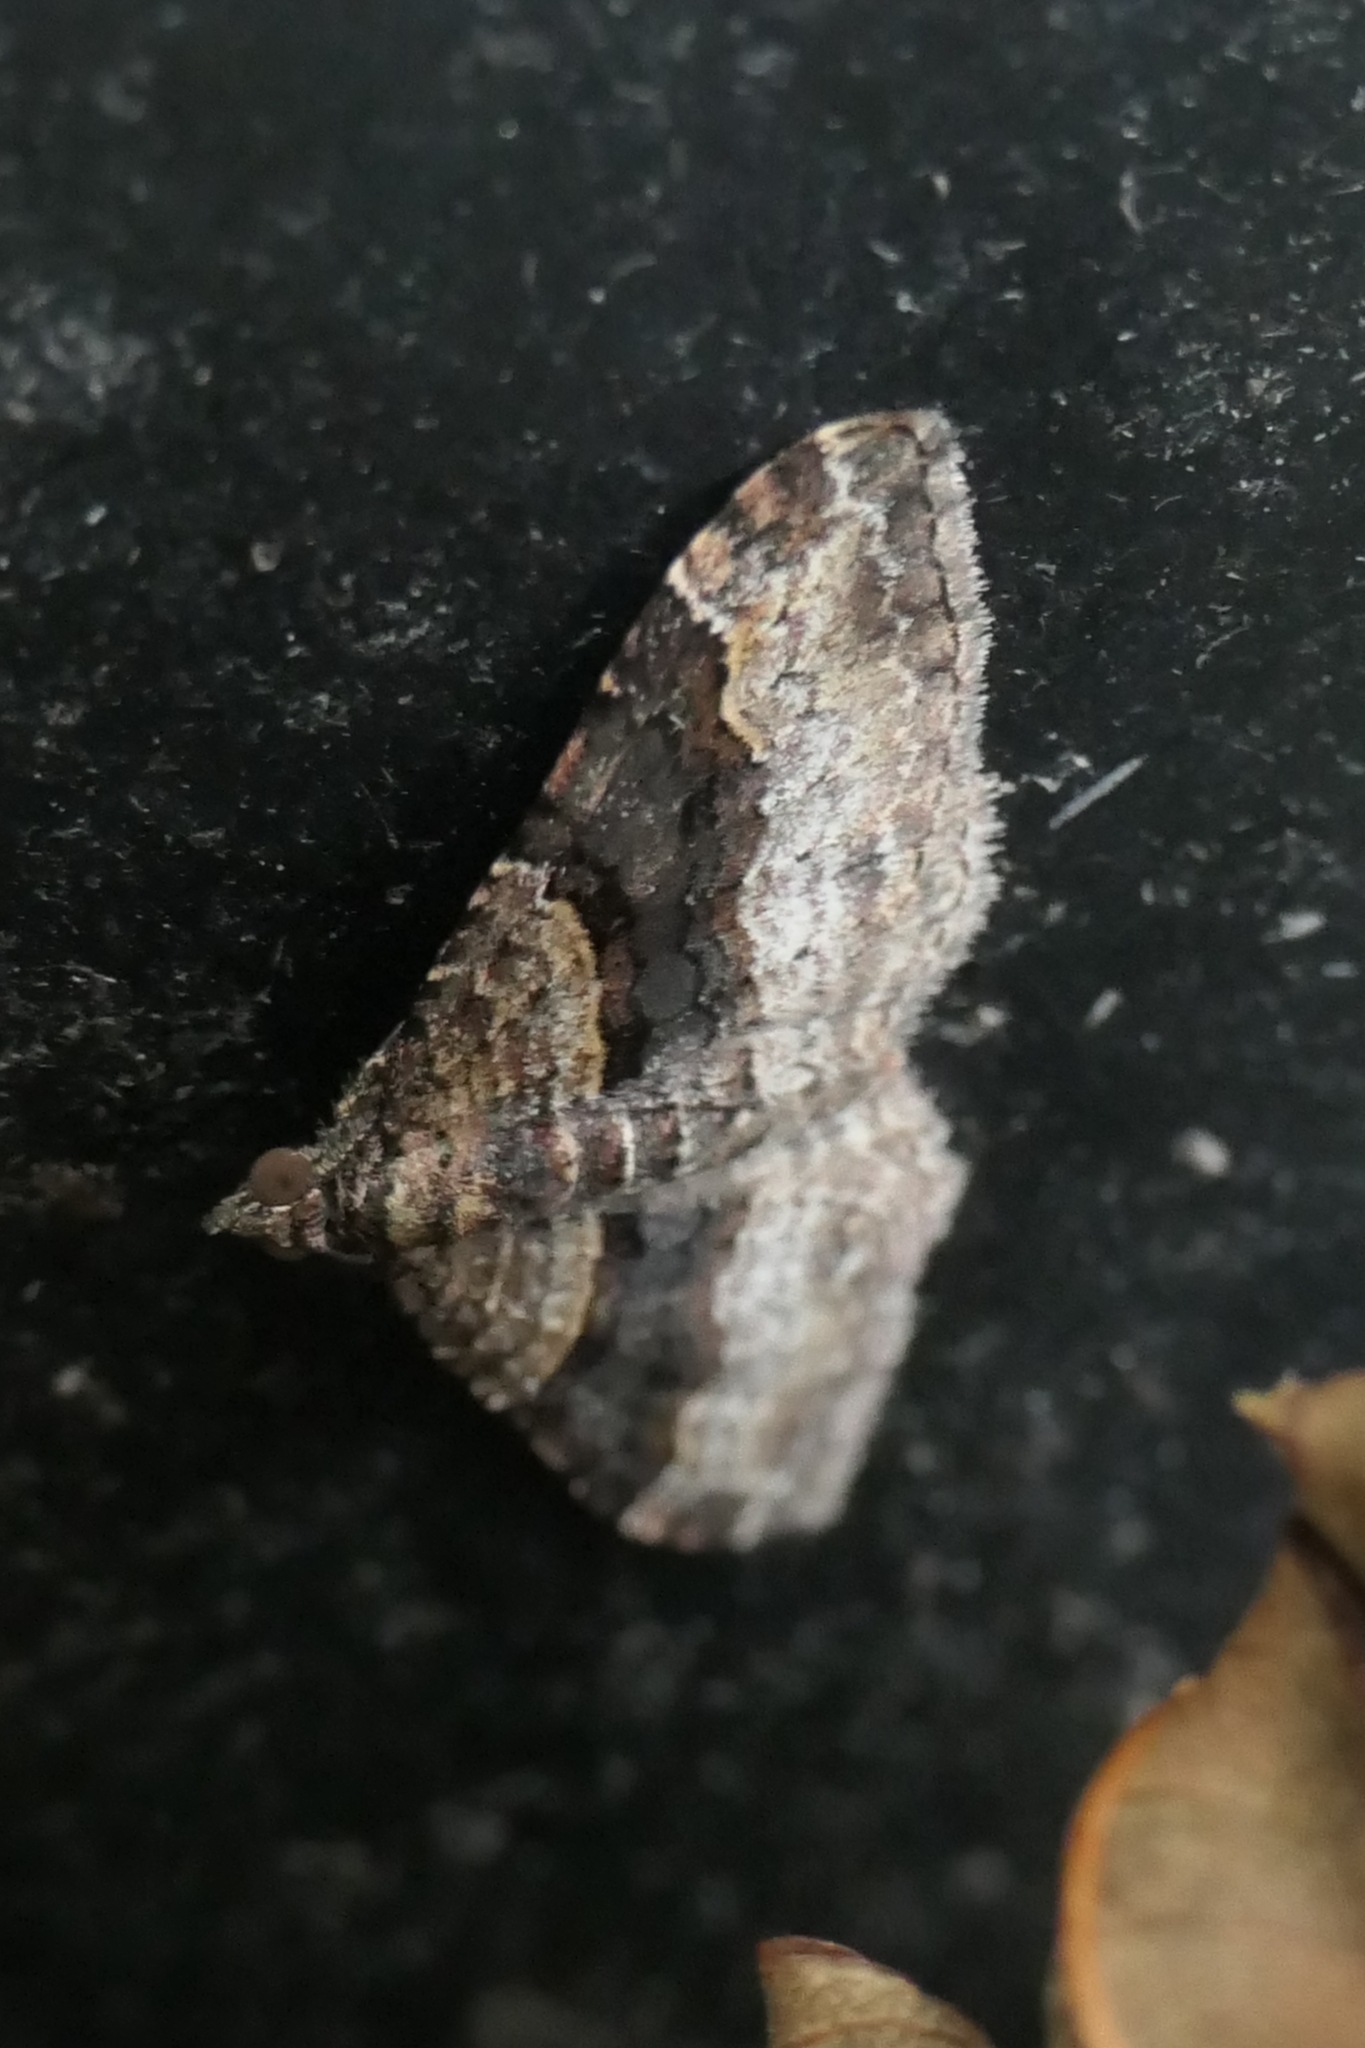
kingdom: Animalia
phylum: Arthropoda
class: Insecta
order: Lepidoptera
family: Geometridae
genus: Epyaxa
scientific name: Epyaxa lucidata
